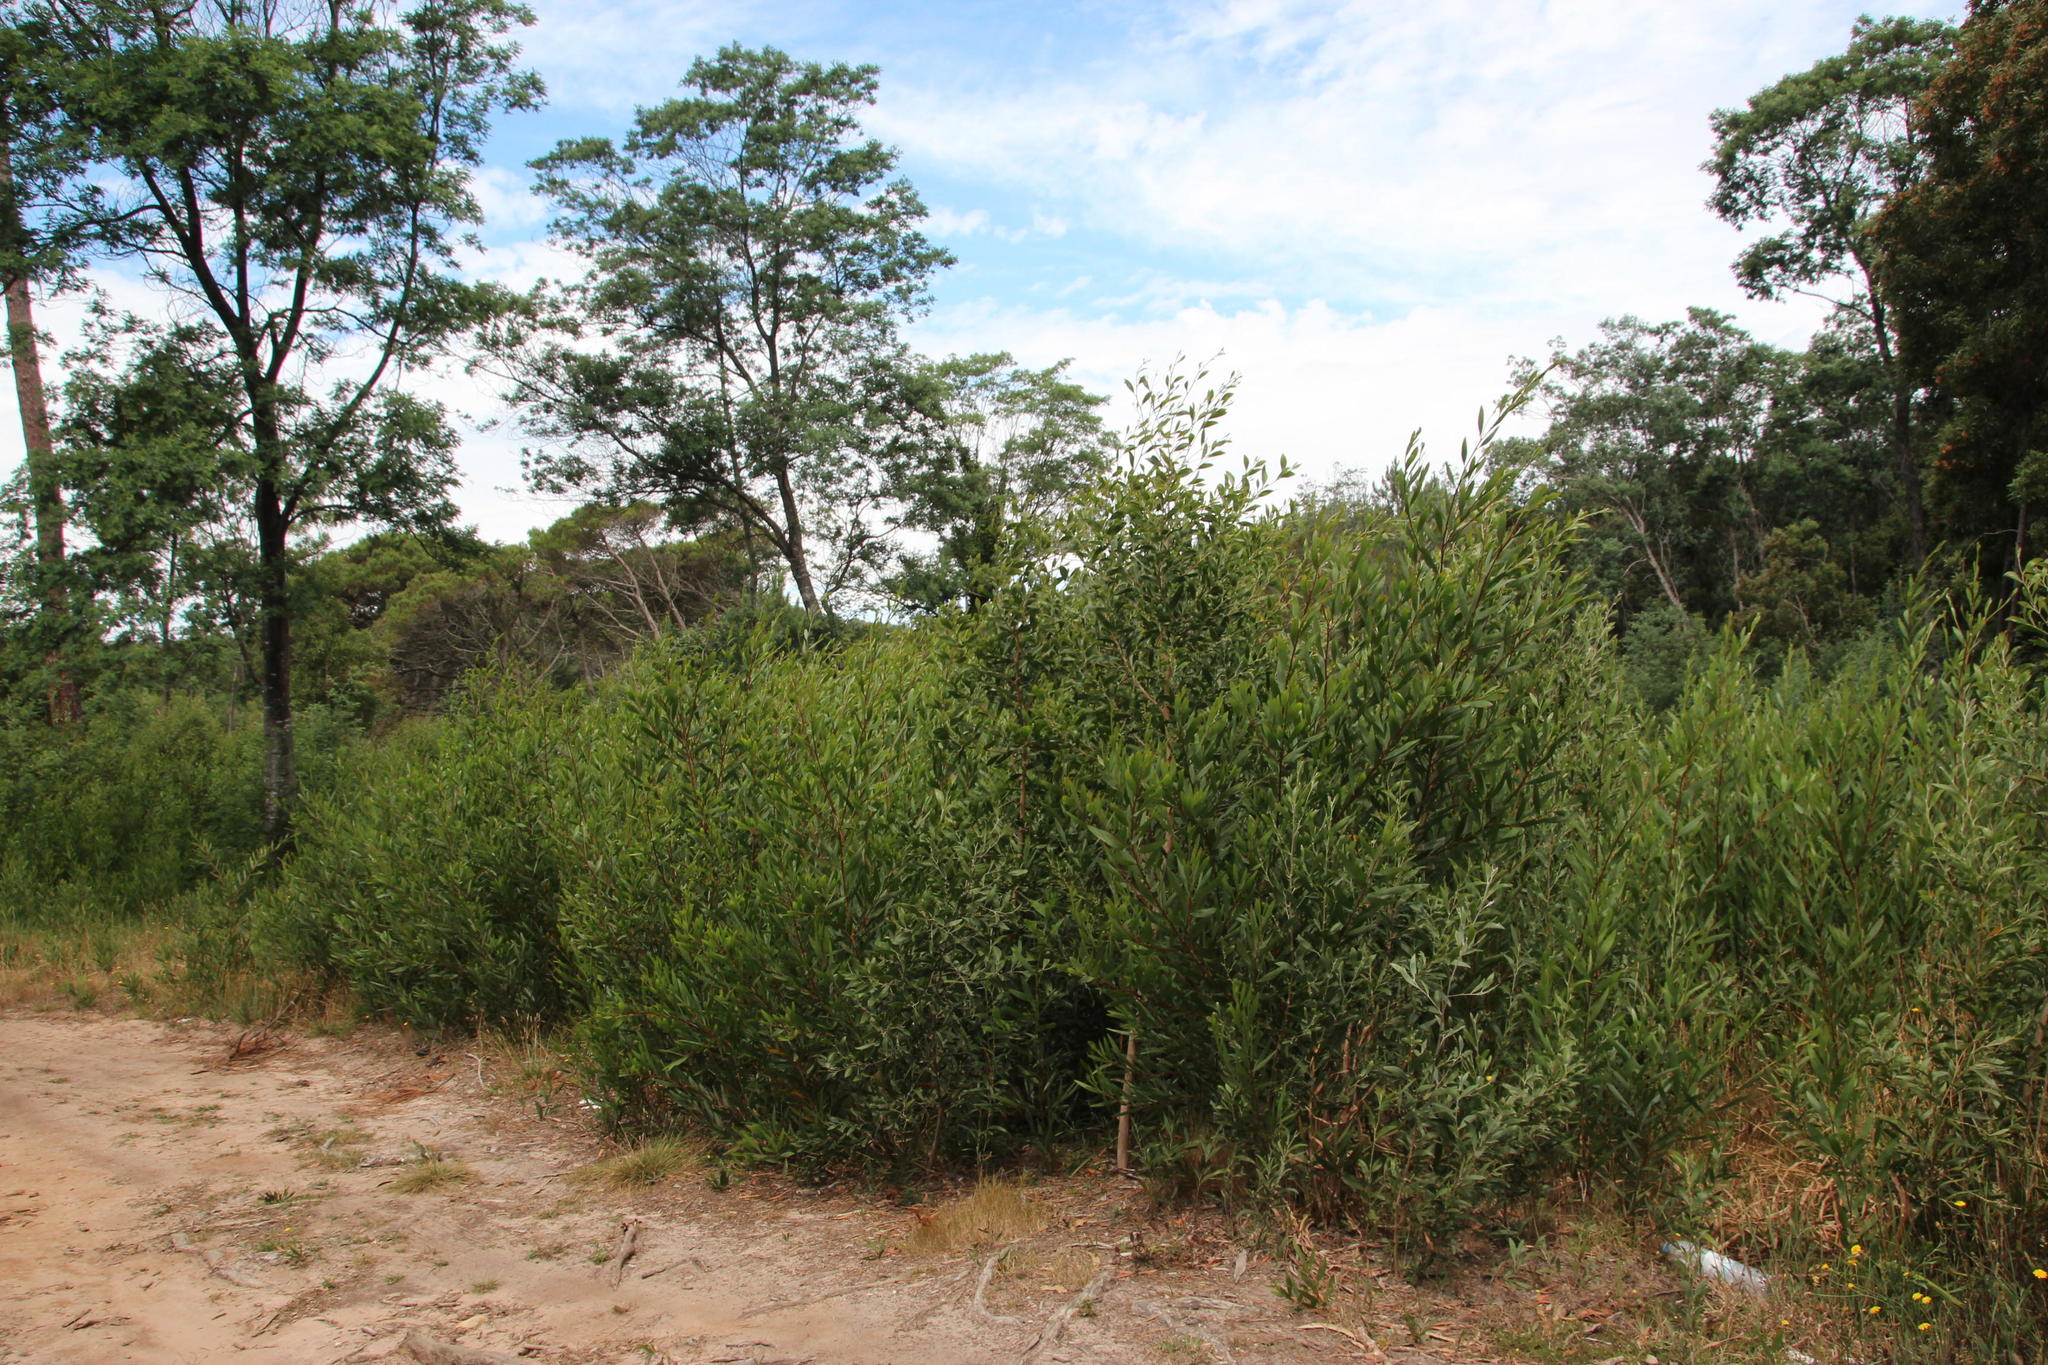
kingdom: Plantae
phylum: Tracheophyta
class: Magnoliopsida
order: Fabales
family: Fabaceae
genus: Acacia
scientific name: Acacia longifolia
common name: Sydney golden wattle
